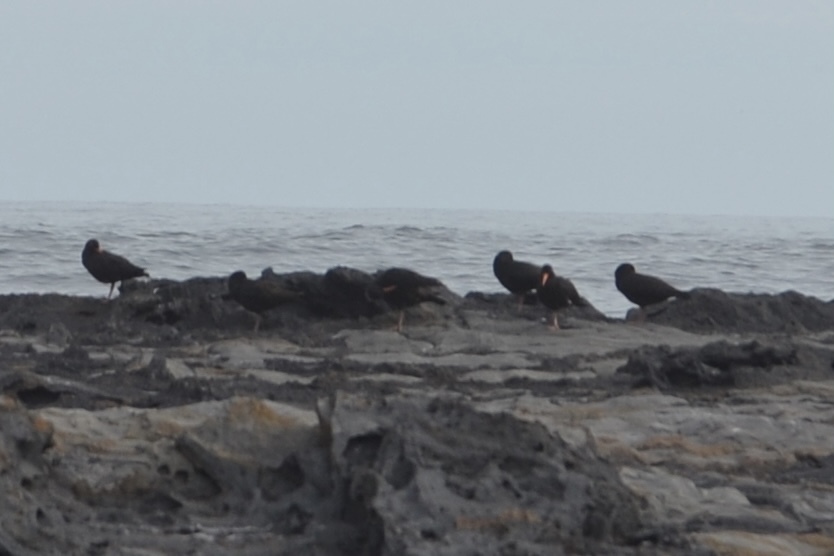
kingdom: Animalia
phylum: Chordata
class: Aves
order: Charadriiformes
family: Haematopodidae
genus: Haematopus
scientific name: Haematopus moquini
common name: African oystercatcher
